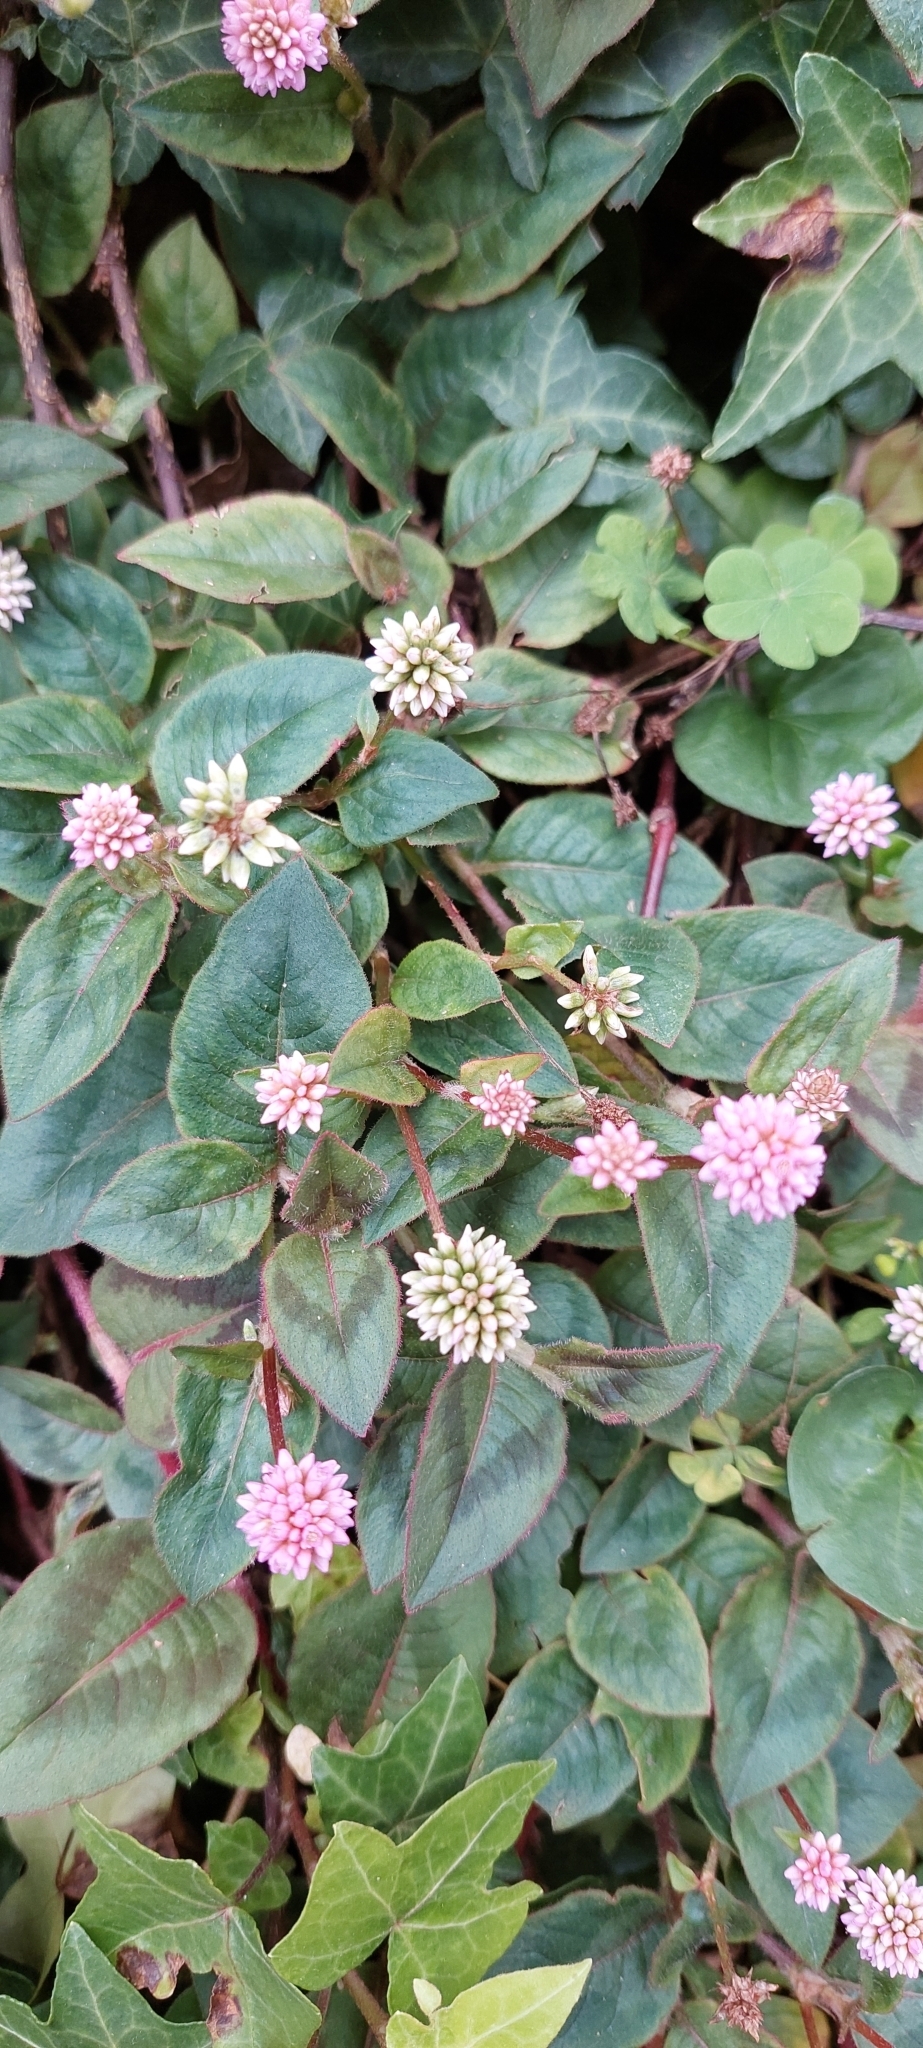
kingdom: Plantae
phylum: Tracheophyta
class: Magnoliopsida
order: Caryophyllales
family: Polygonaceae
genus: Persicaria
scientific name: Persicaria capitata
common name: Pinkhead smartweed
